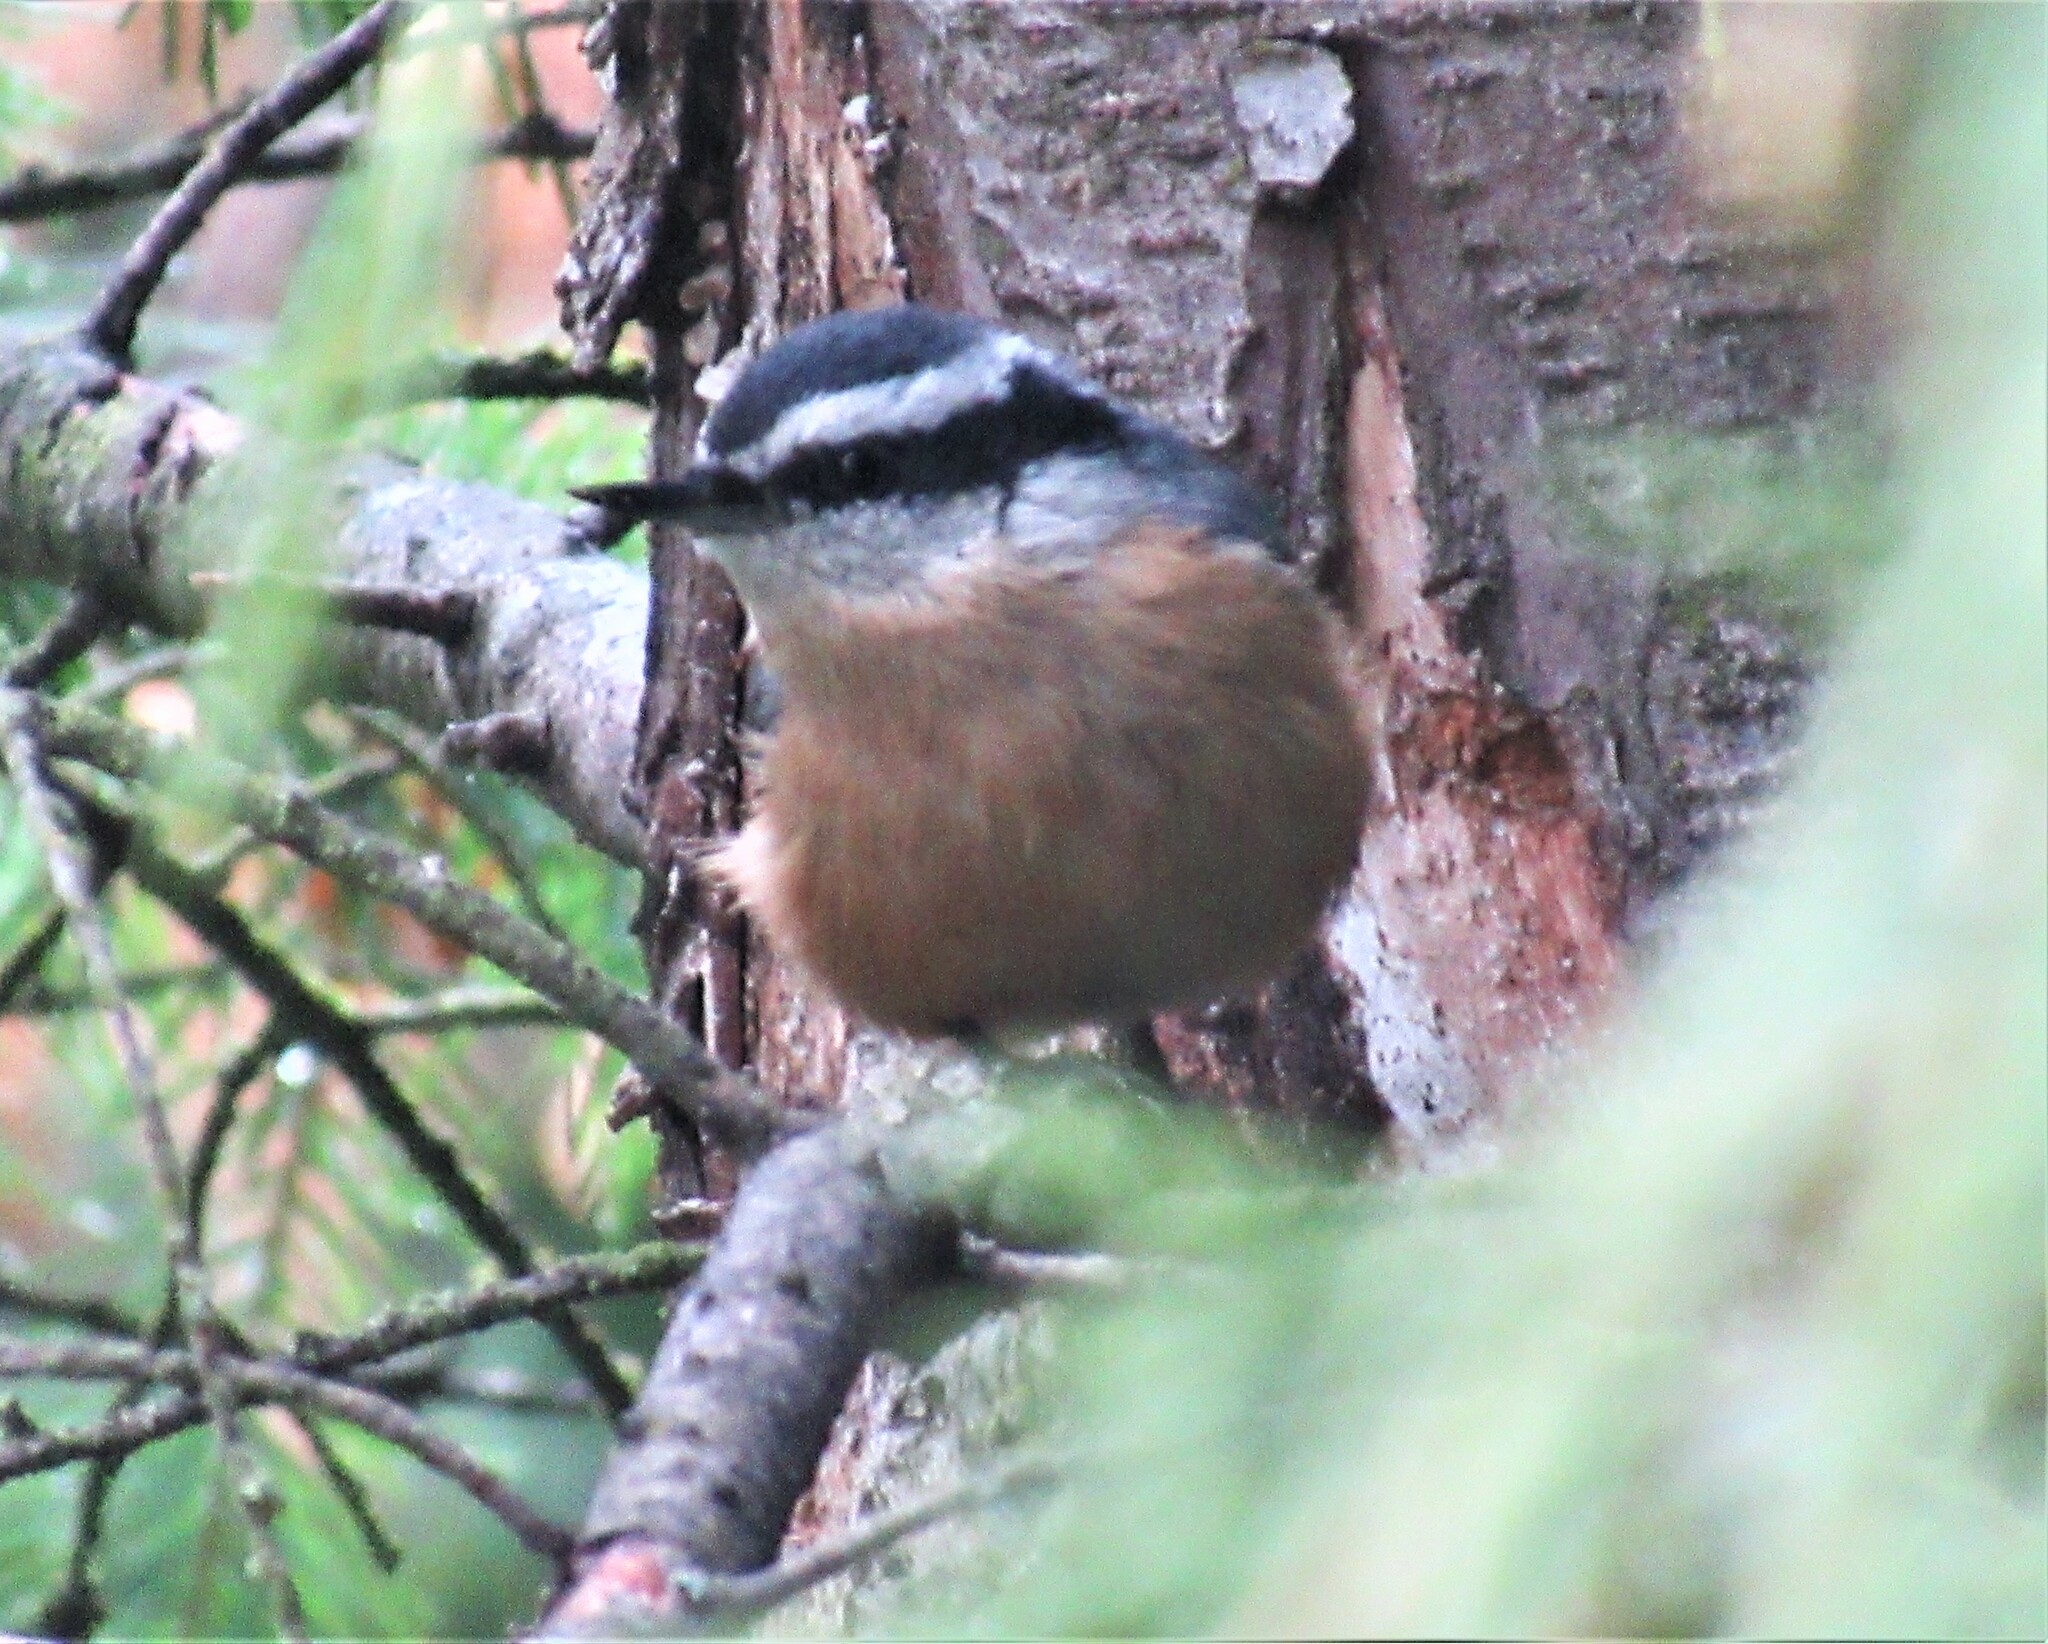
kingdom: Animalia
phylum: Chordata
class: Aves
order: Passeriformes
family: Sittidae
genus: Sitta
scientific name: Sitta canadensis
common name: Red-breasted nuthatch
